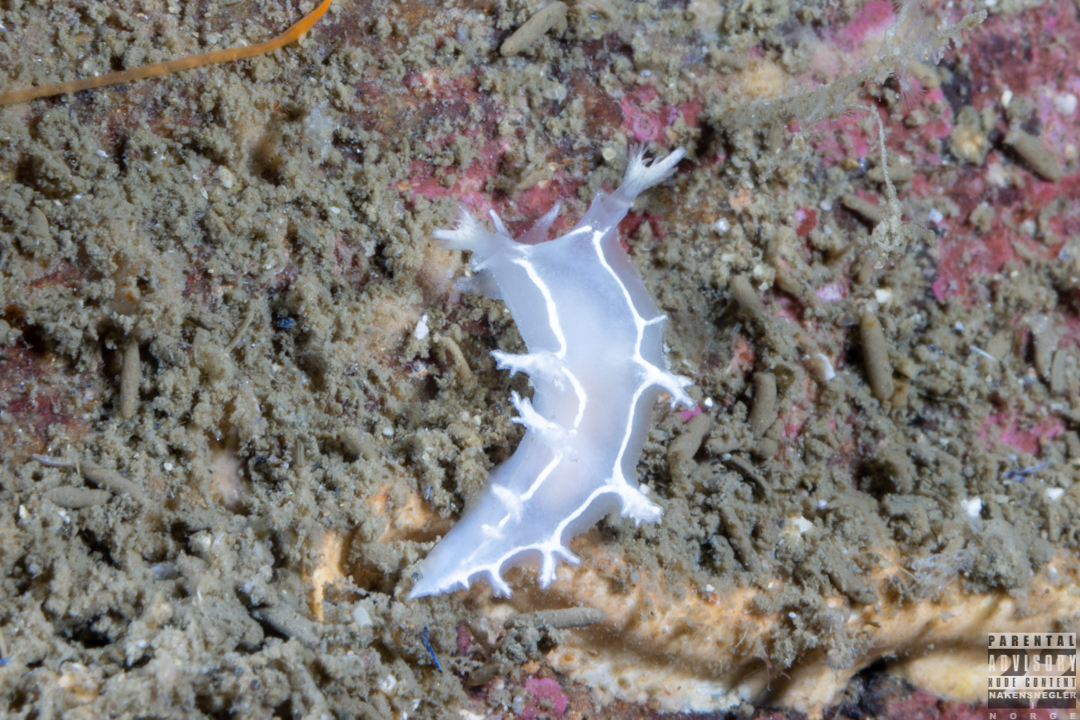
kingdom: Animalia
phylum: Mollusca
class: Gastropoda
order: Nudibranchia
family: Tritoniidae
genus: Duvaucelia
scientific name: Duvaucelia lineata
